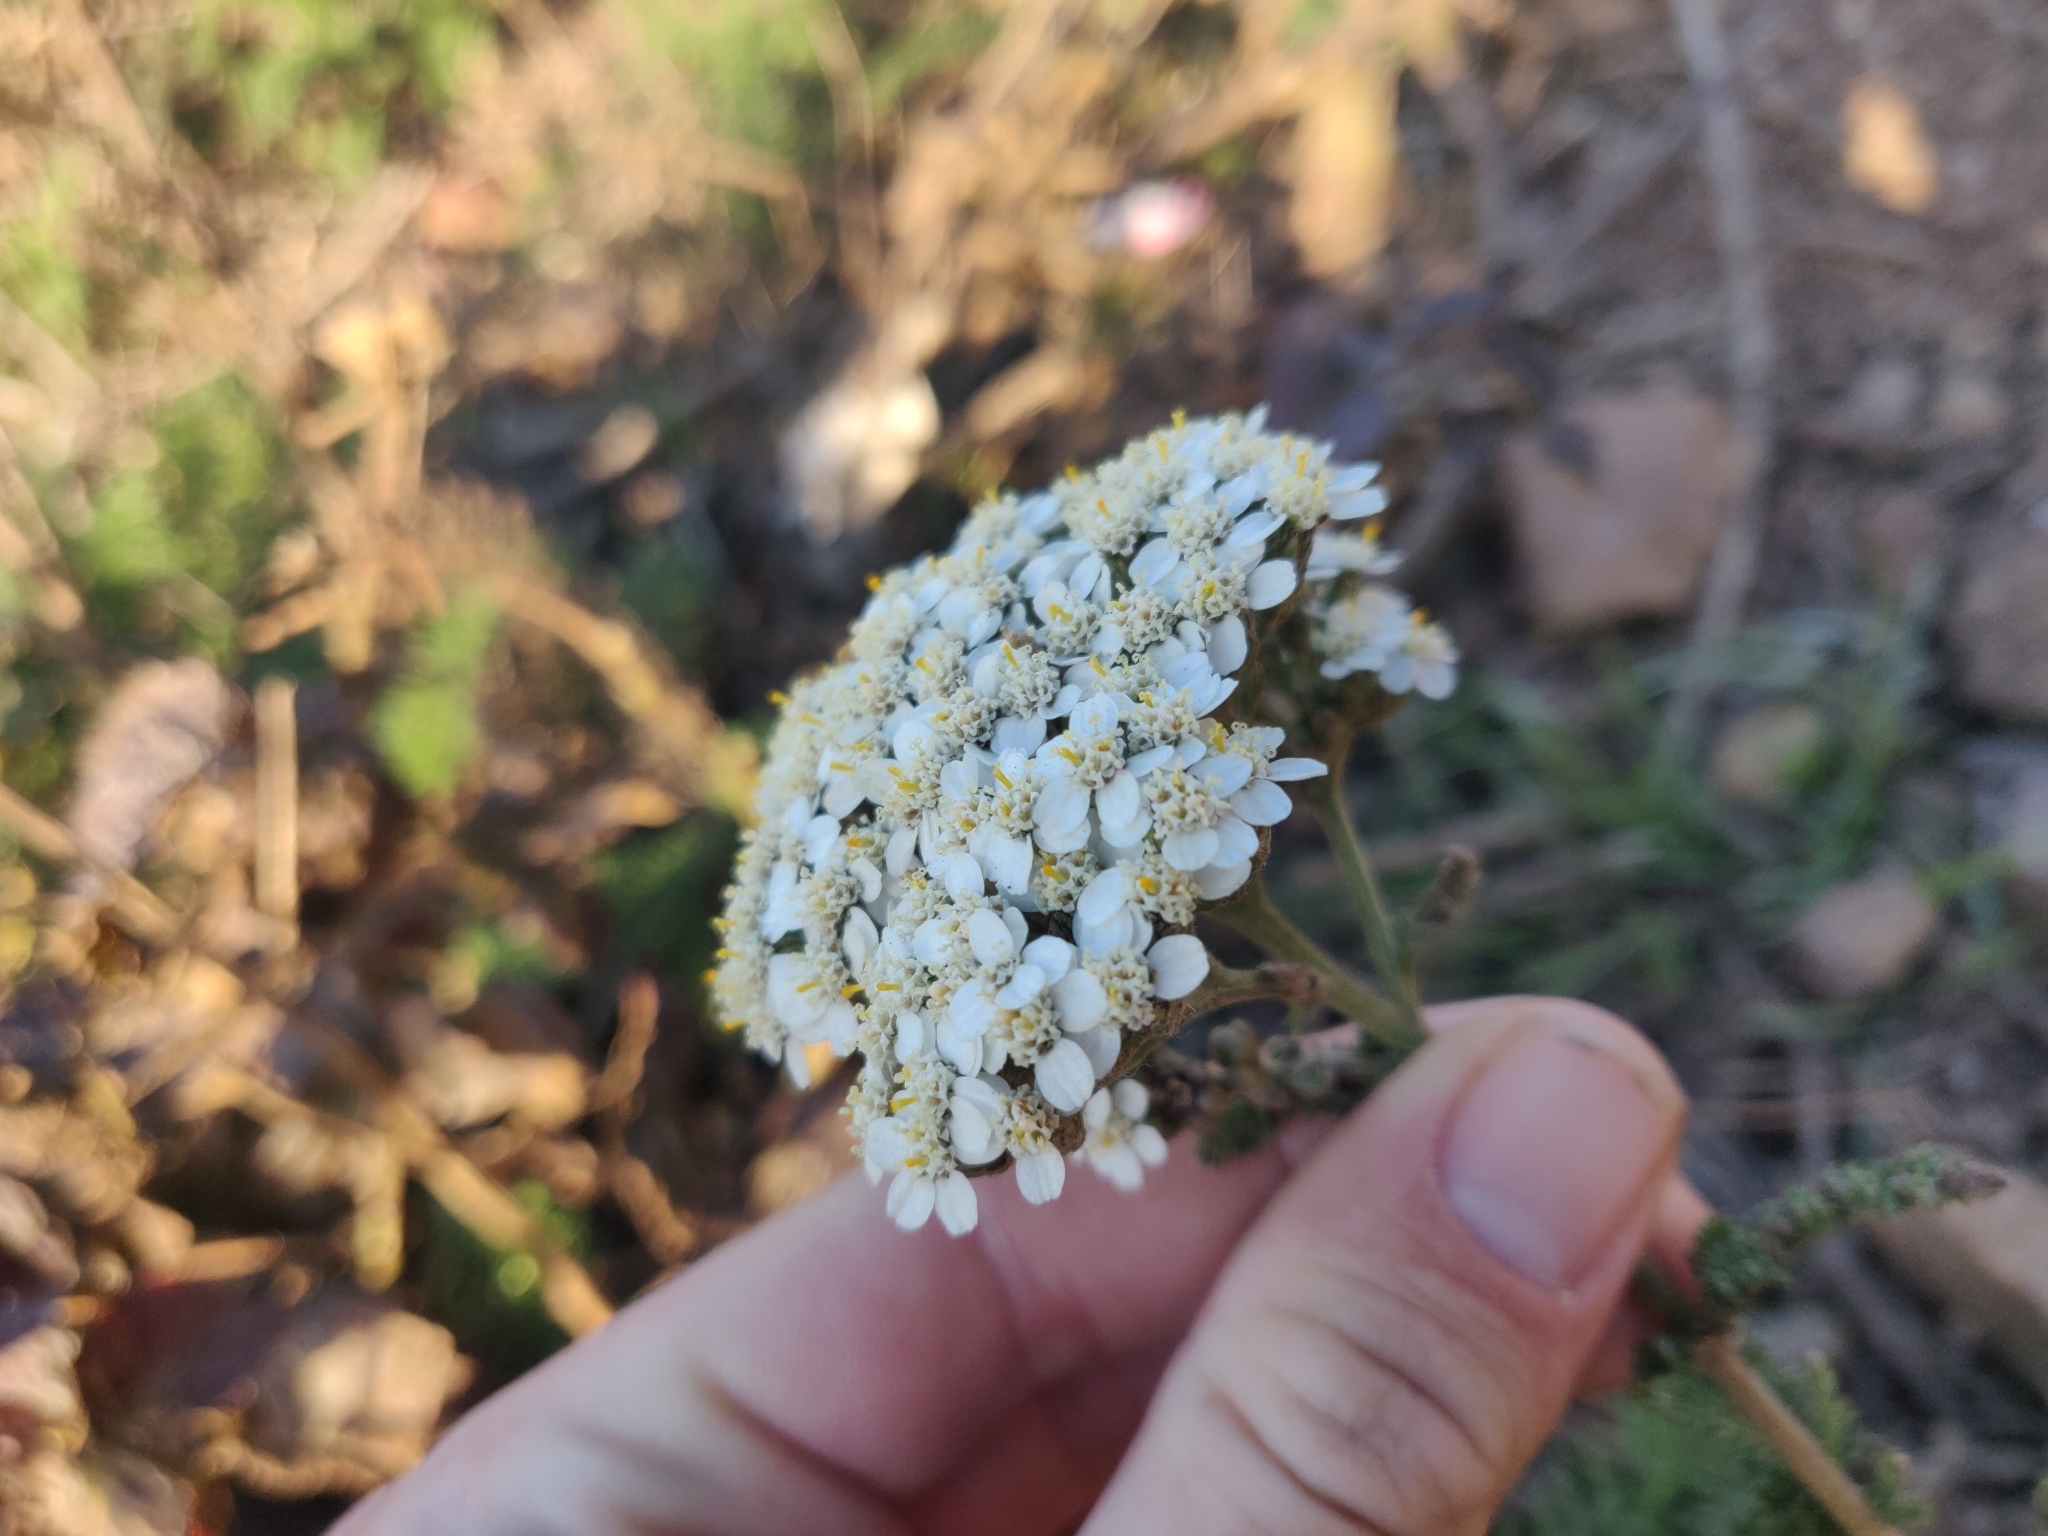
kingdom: Plantae
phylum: Tracheophyta
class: Magnoliopsida
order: Asterales
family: Asteraceae
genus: Achillea
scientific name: Achillea millefolium
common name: Yarrow
